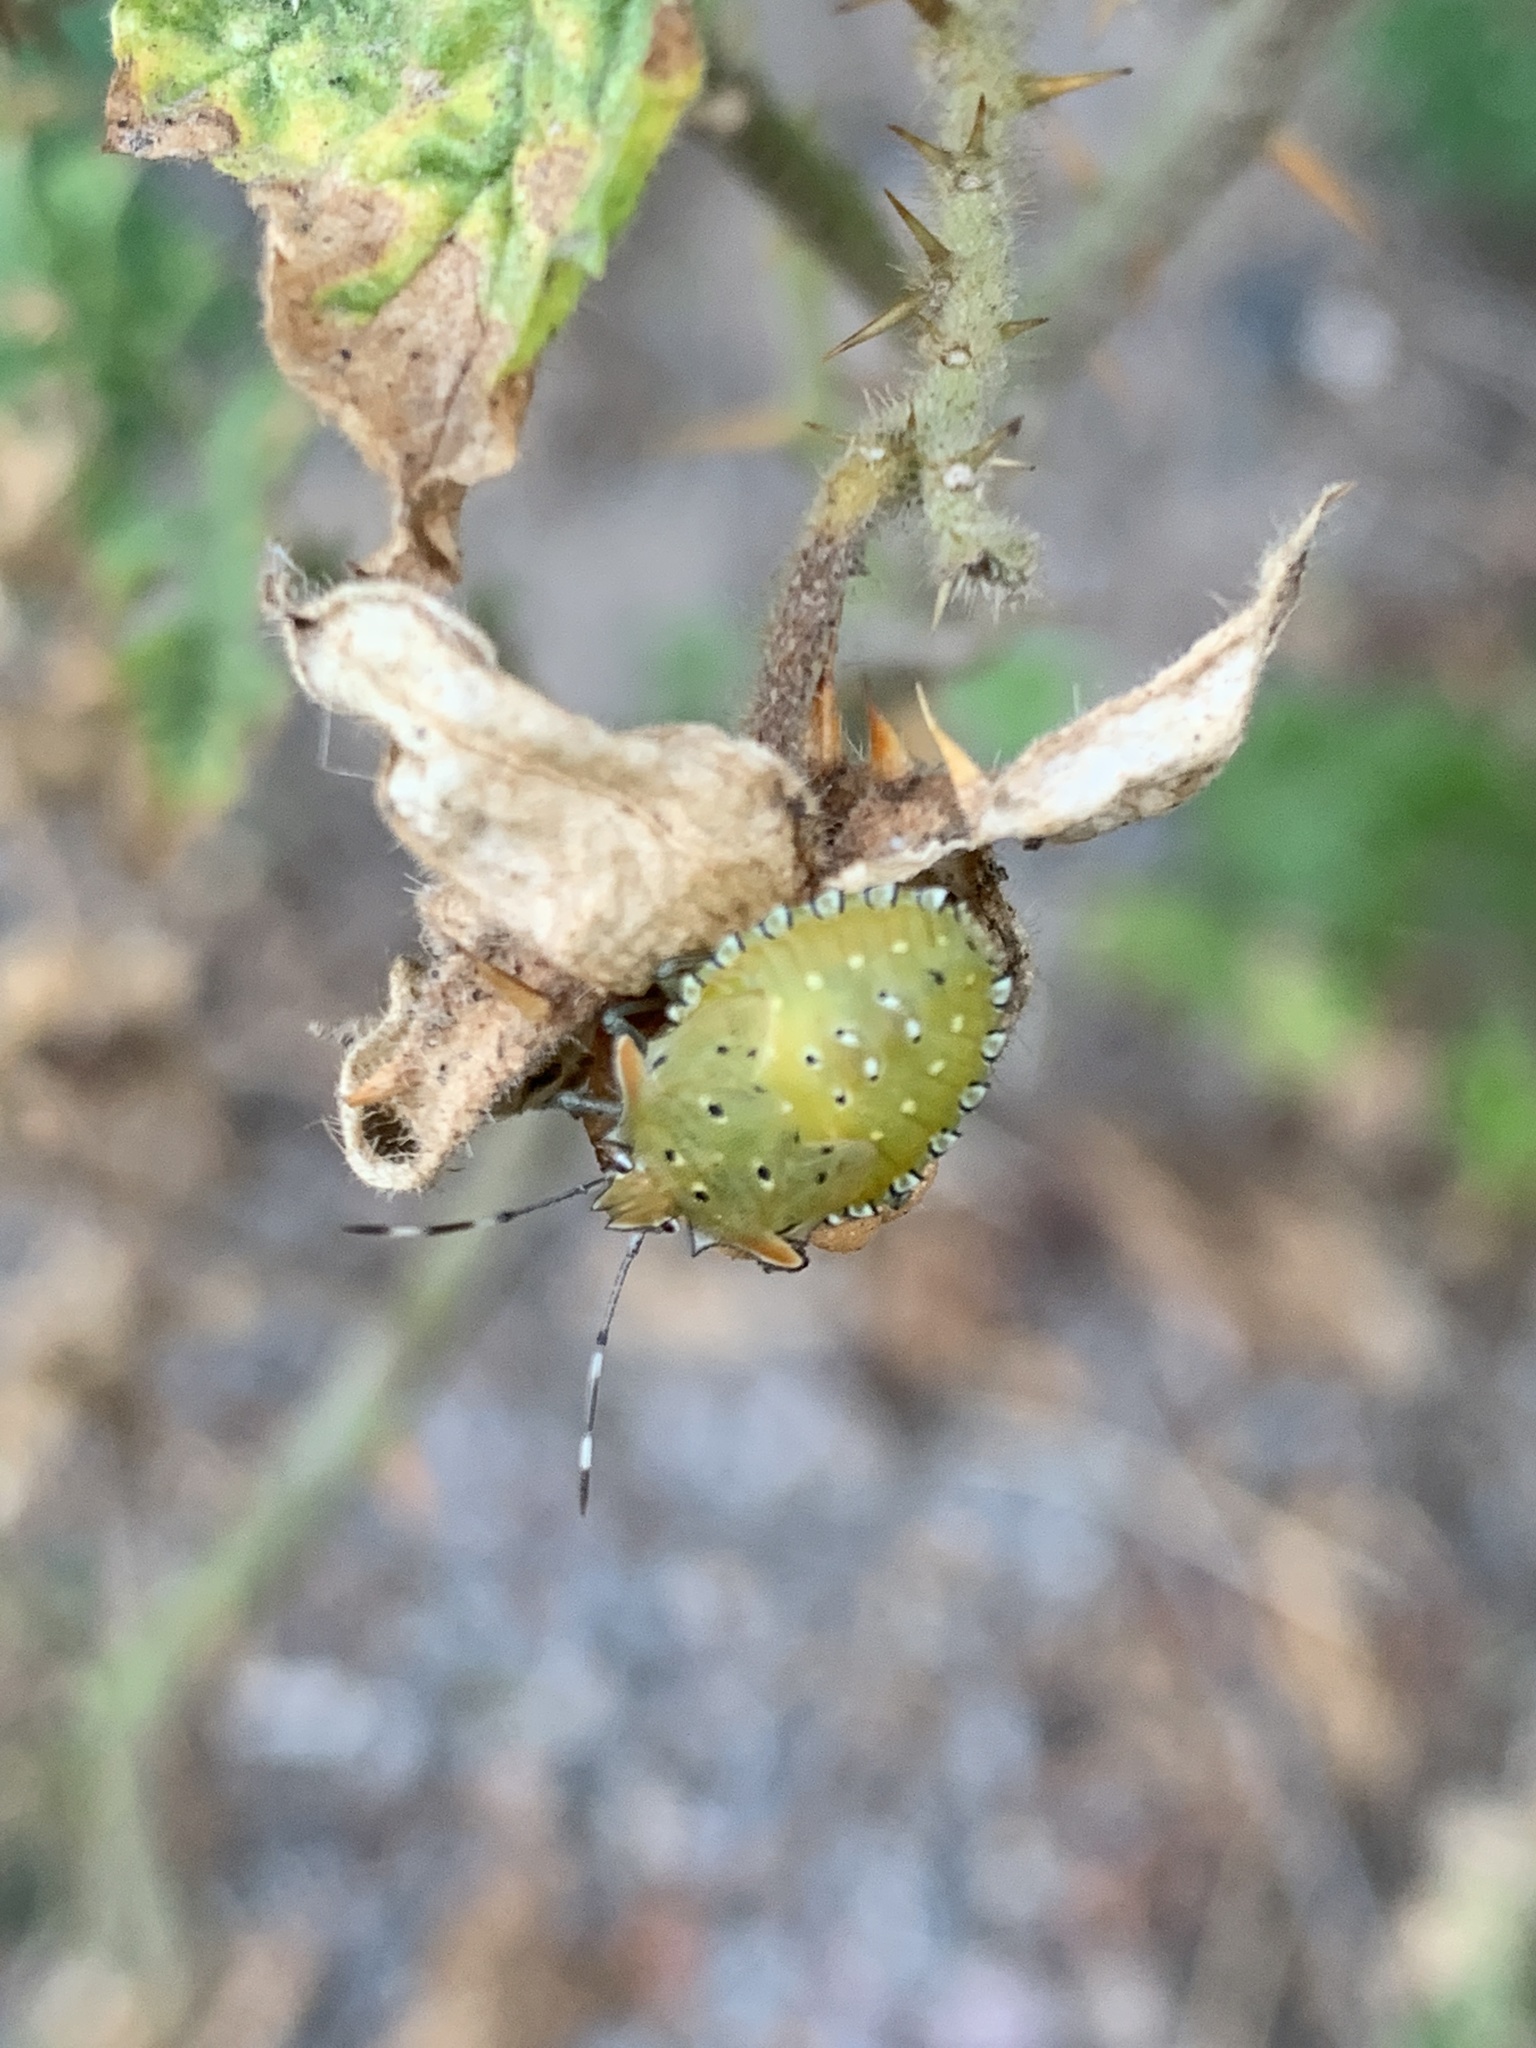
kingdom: Animalia
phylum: Arthropoda
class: Insecta
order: Hemiptera
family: Pentatomidae
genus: Arvelius
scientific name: Arvelius albopunctatus
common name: Tomato stink bug
